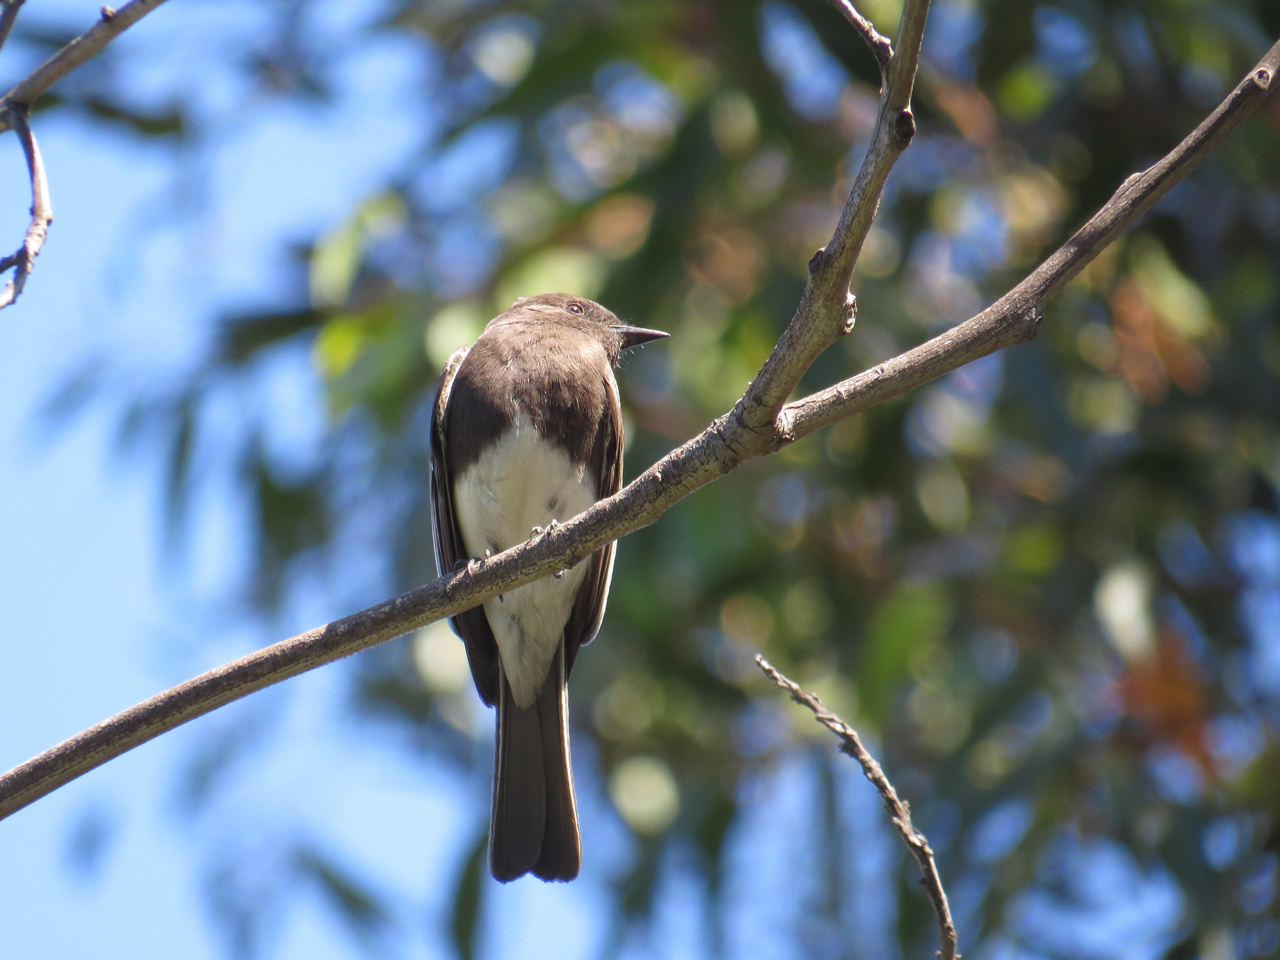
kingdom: Animalia
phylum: Chordata
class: Aves
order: Passeriformes
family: Tyrannidae
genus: Sayornis
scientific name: Sayornis nigricans
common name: Black phoebe
